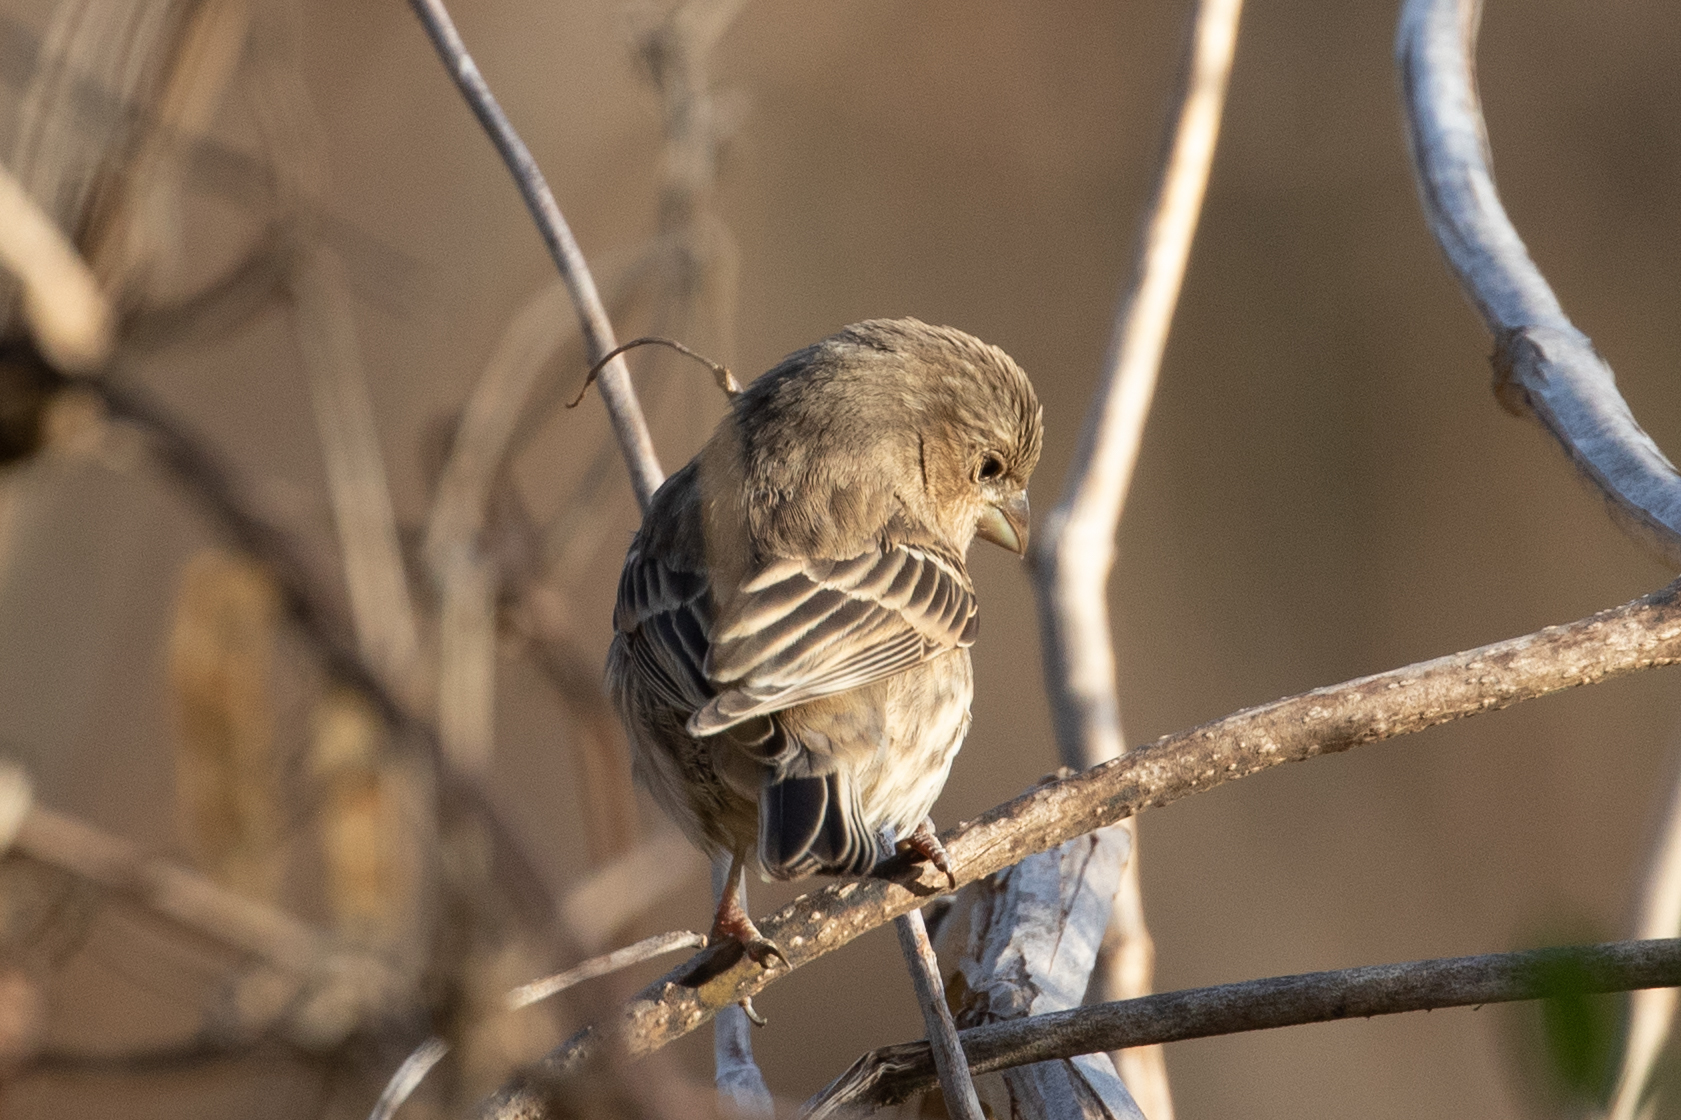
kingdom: Animalia
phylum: Chordata
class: Aves
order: Passeriformes
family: Fringillidae
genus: Haemorhous
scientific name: Haemorhous mexicanus
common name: House finch
